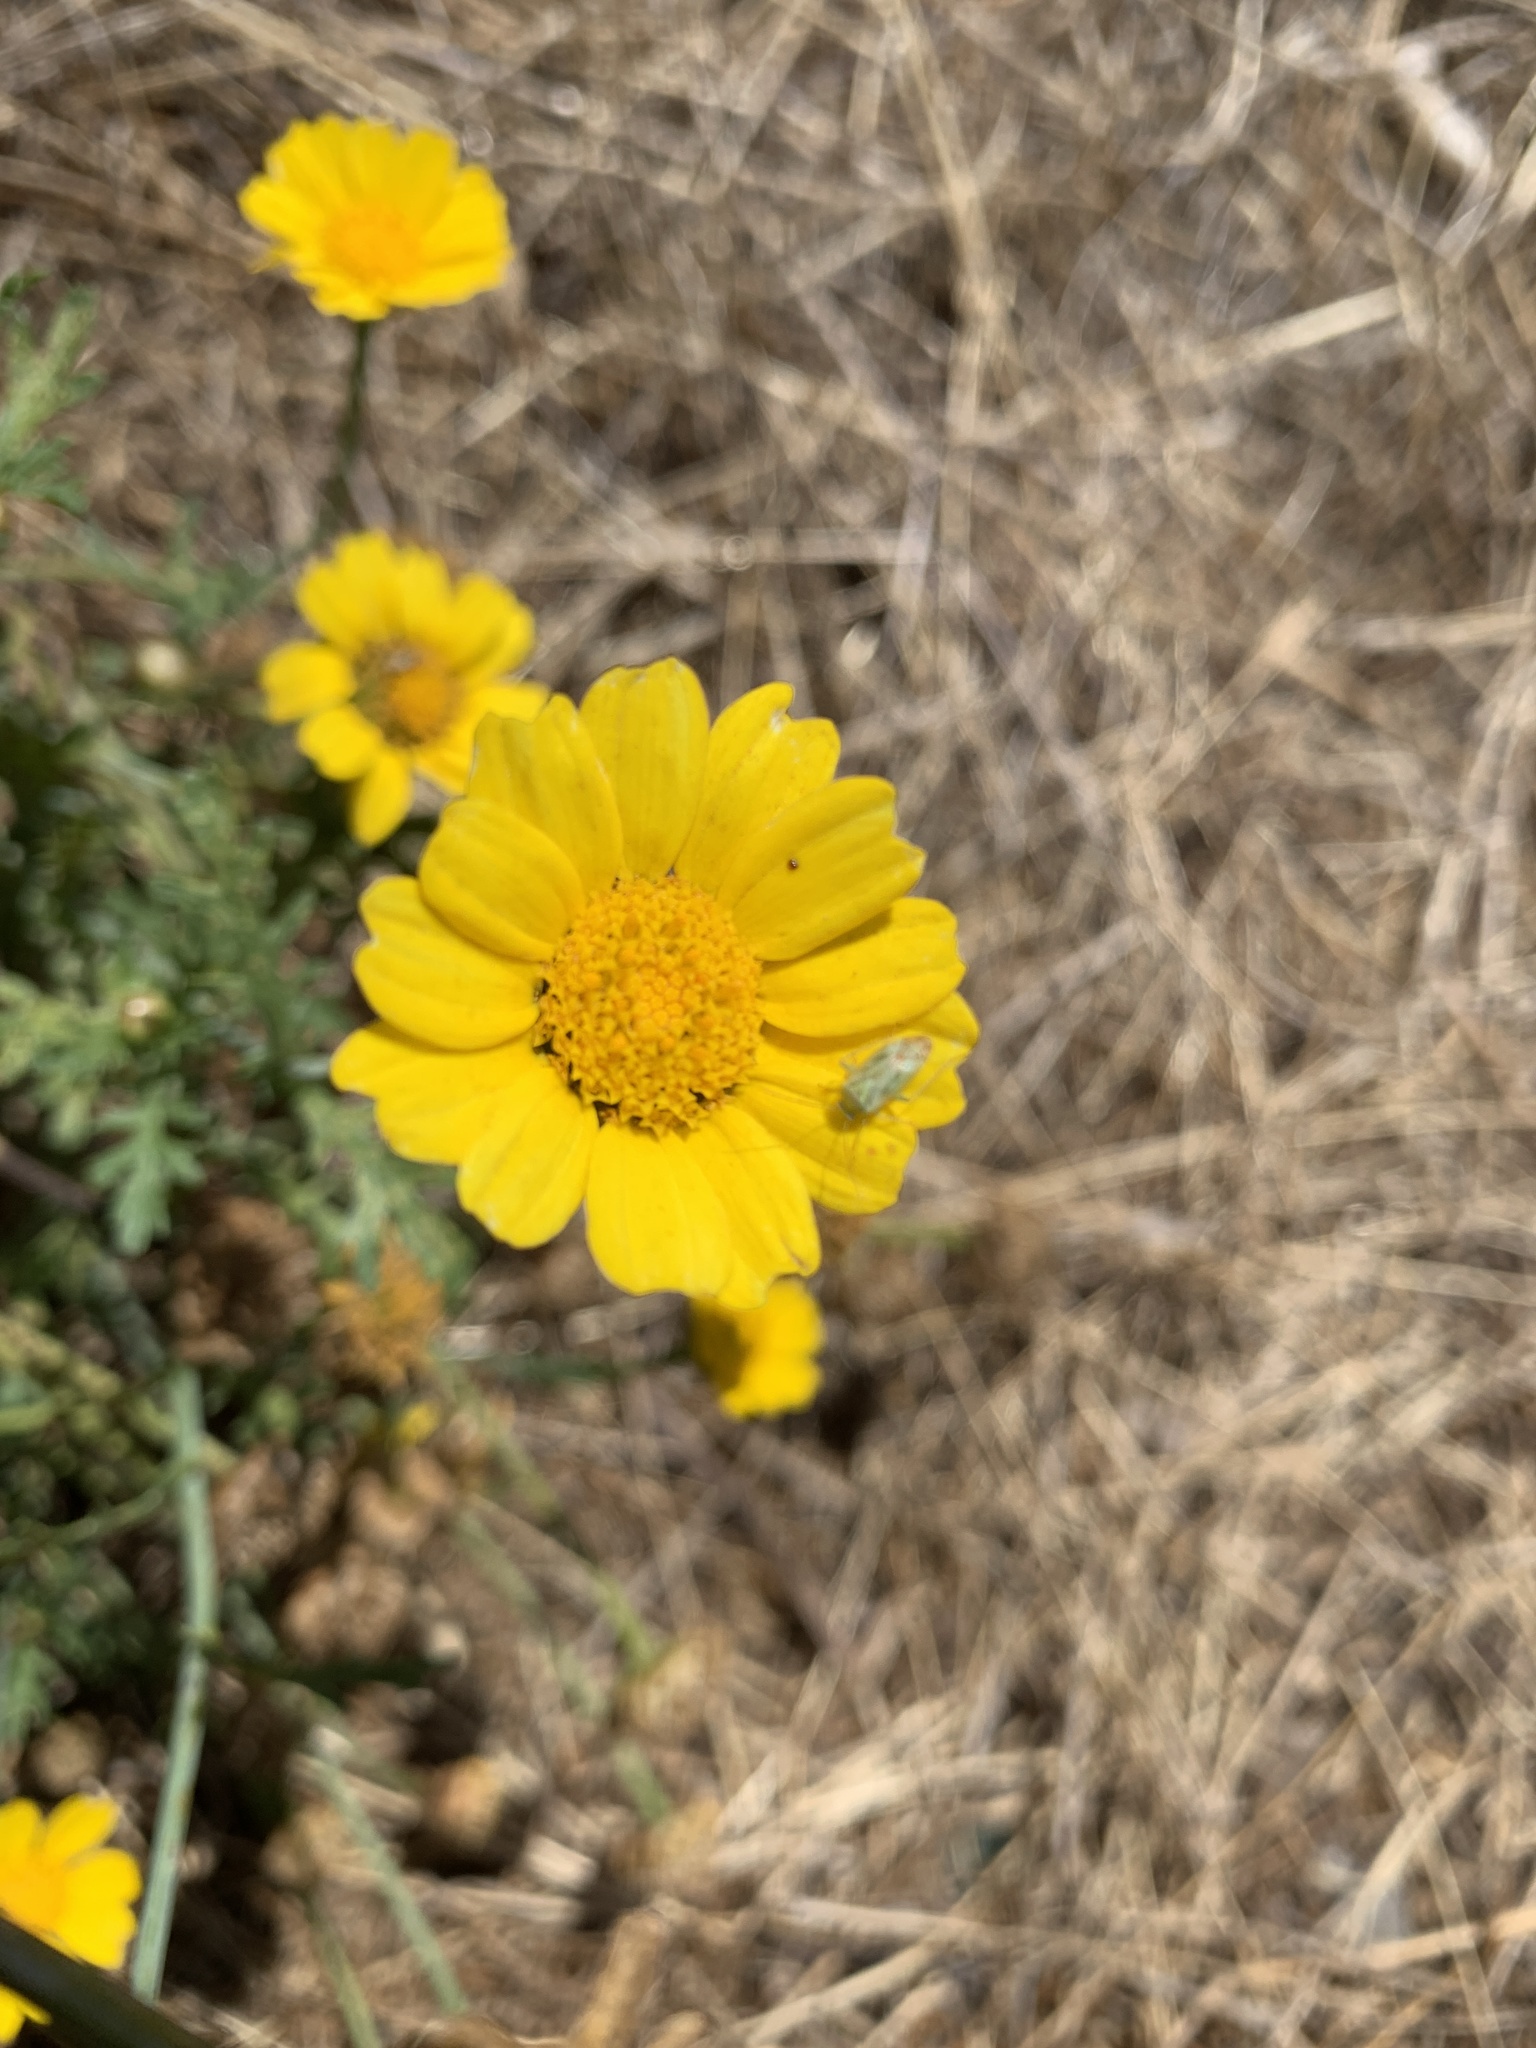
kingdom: Plantae
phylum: Tracheophyta
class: Magnoliopsida
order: Asterales
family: Asteraceae
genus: Glebionis
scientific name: Glebionis coronaria
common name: Crowndaisy
